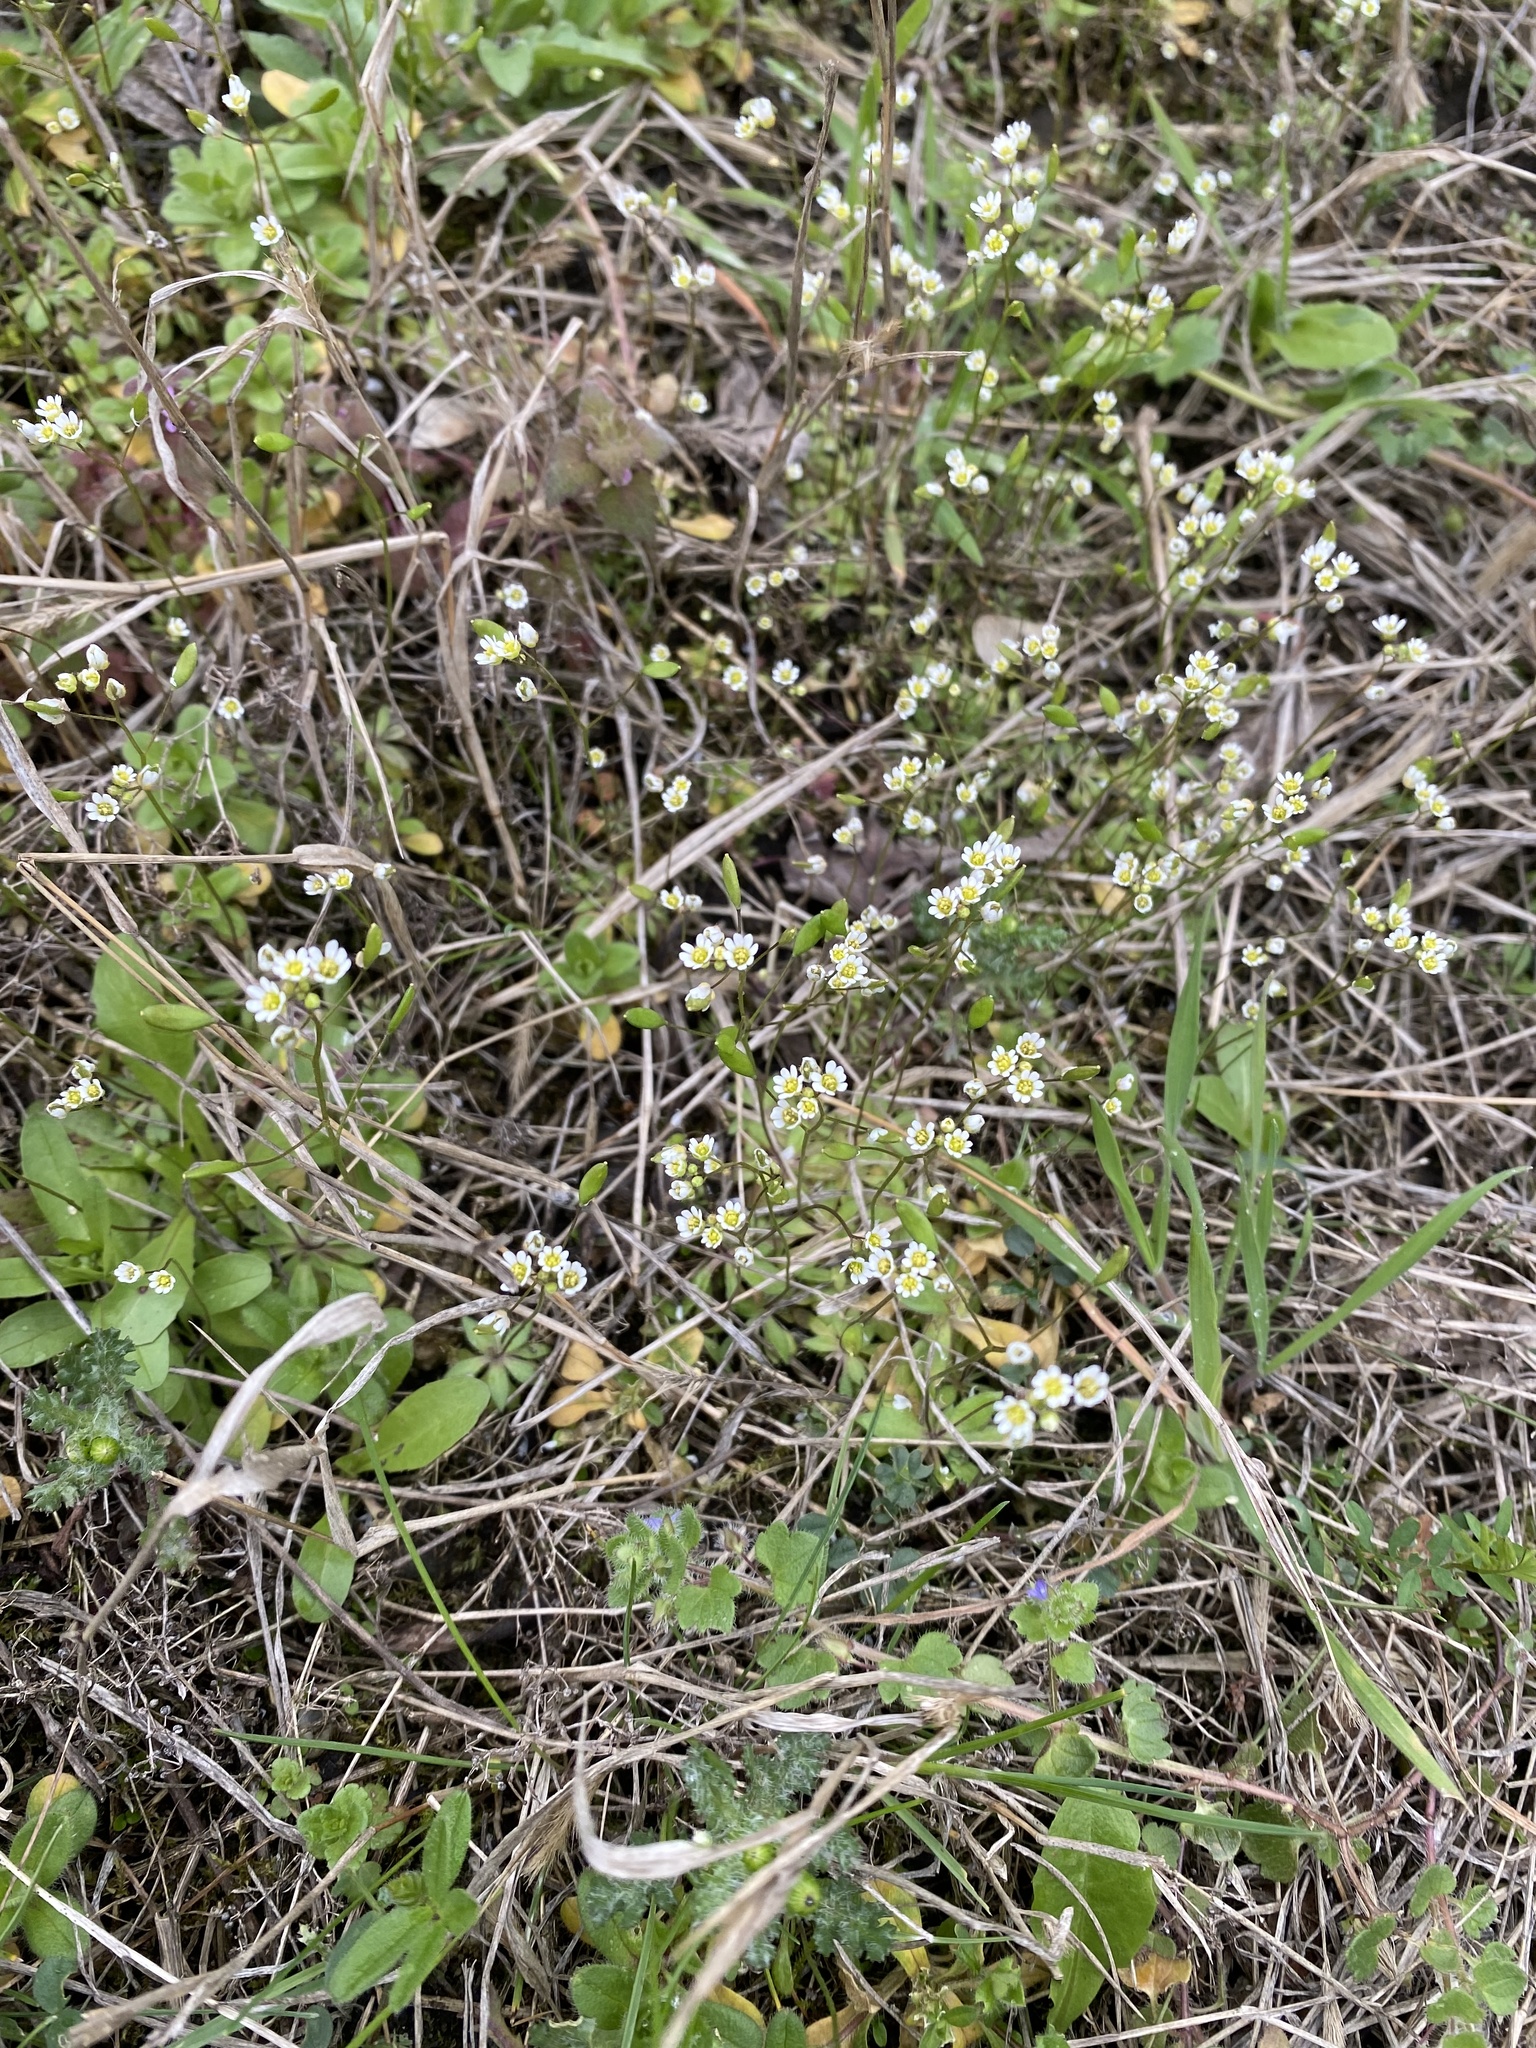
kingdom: Plantae
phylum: Tracheophyta
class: Magnoliopsida
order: Brassicales
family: Brassicaceae
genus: Draba
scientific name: Draba verna
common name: Spring draba
